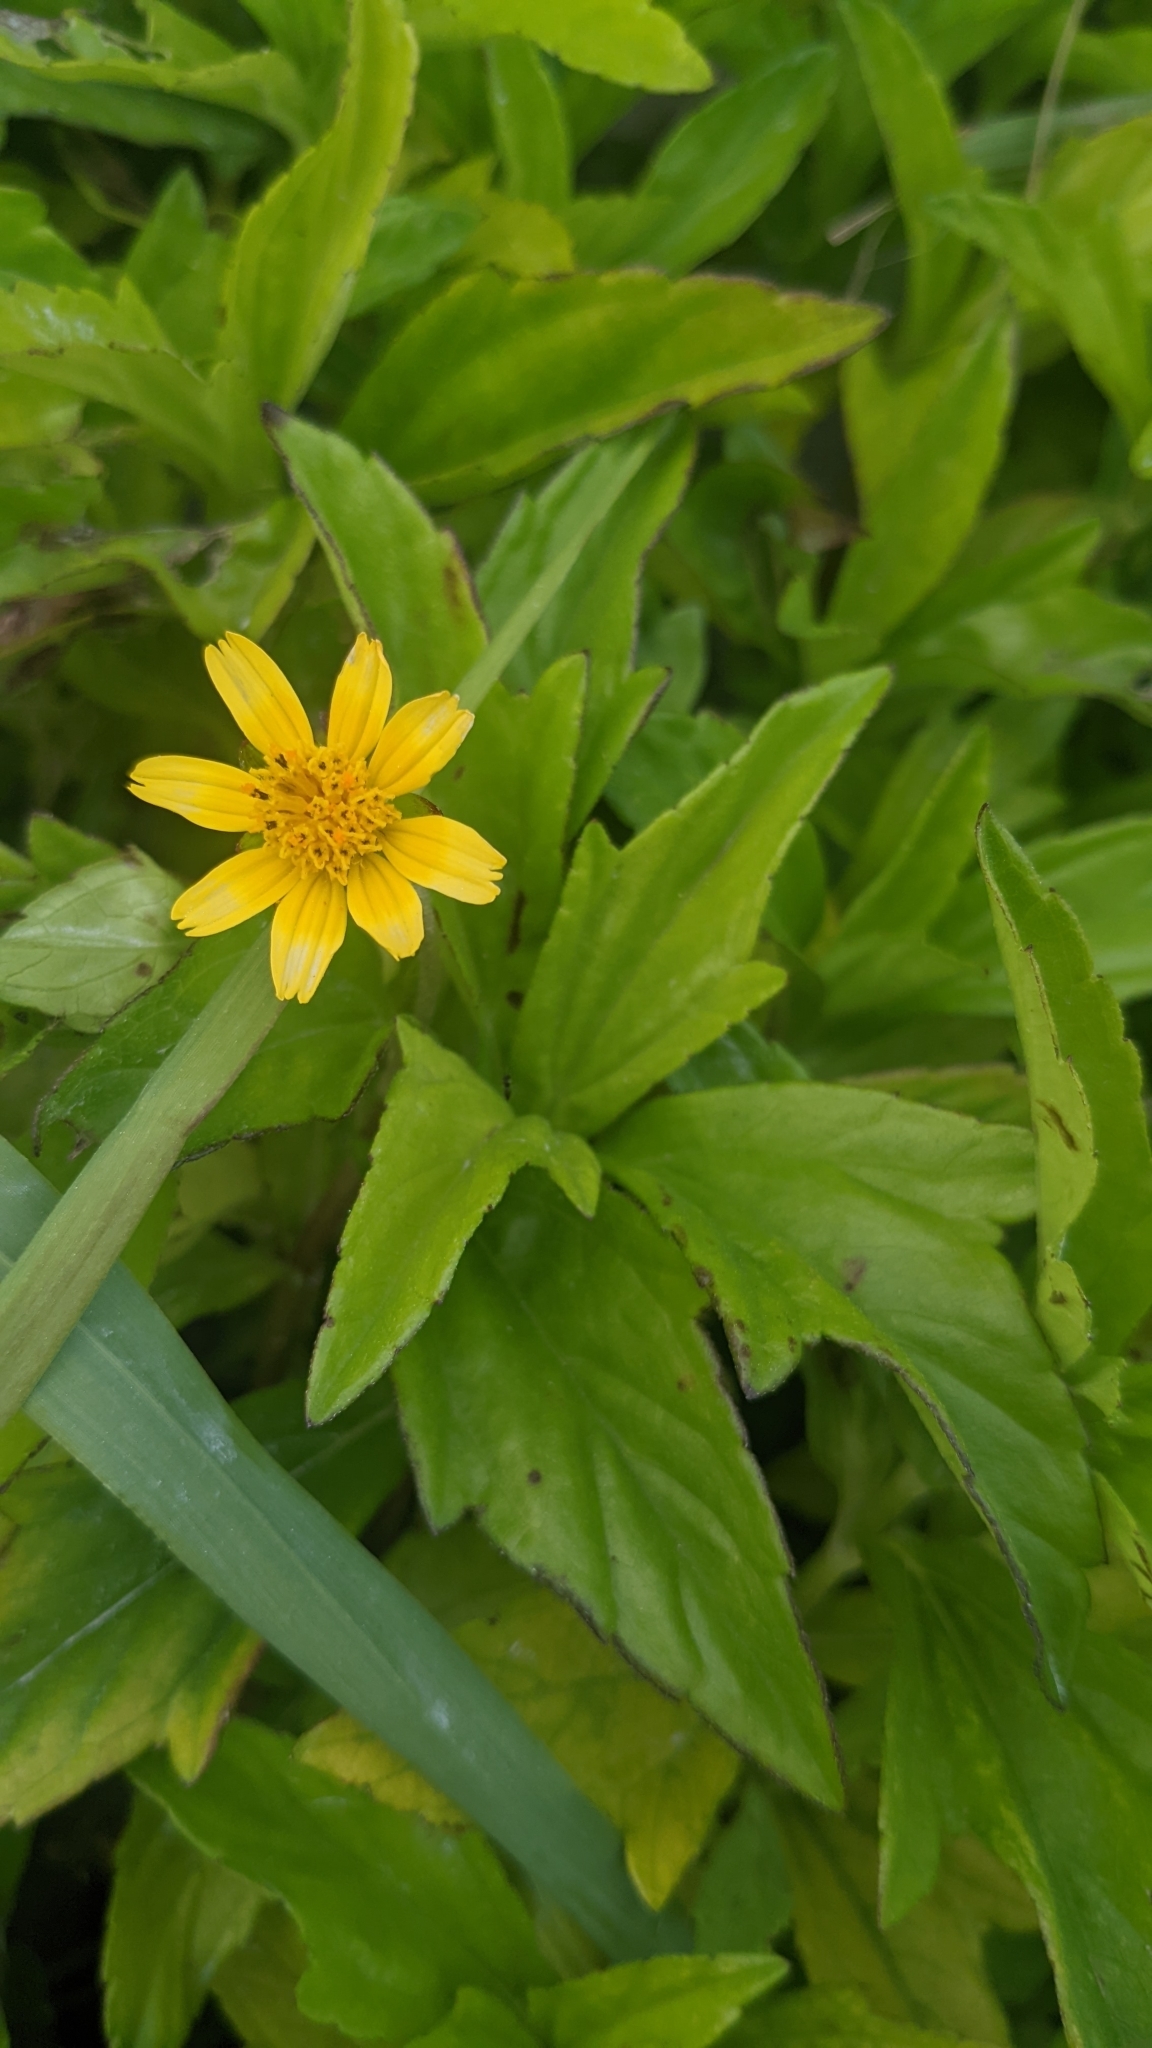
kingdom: Plantae
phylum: Tracheophyta
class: Magnoliopsida
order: Asterales
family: Asteraceae
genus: Sphagneticola
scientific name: Sphagneticola trilobata
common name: Bay biscayne creeping-oxeye
